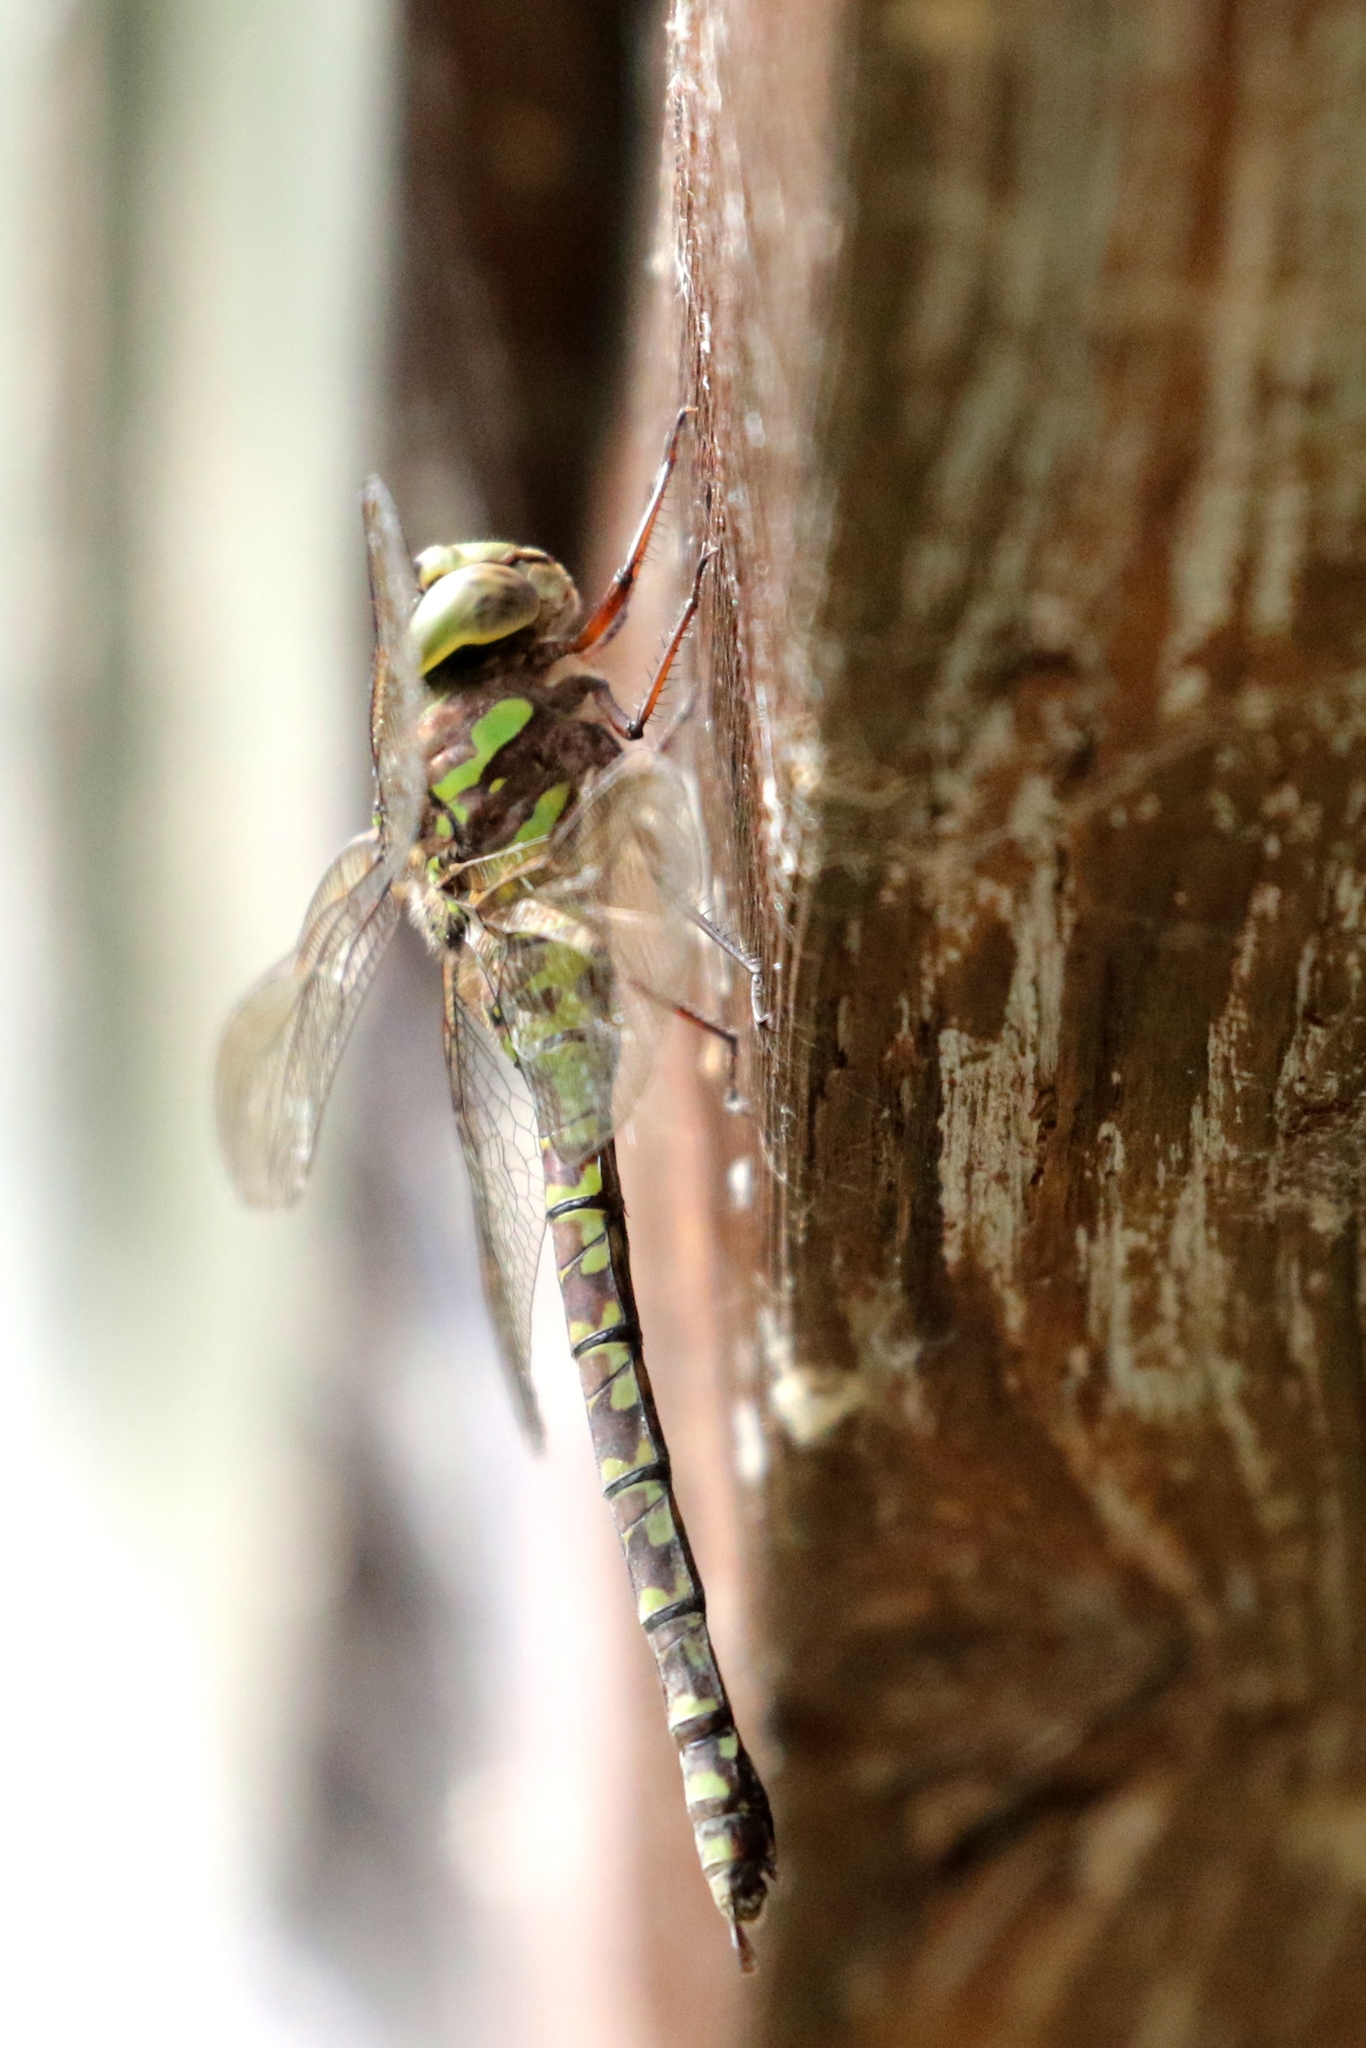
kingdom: Animalia
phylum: Arthropoda
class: Insecta
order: Odonata
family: Aeshnidae
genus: Aeshna
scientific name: Aeshna canadensis
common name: Canada darner
